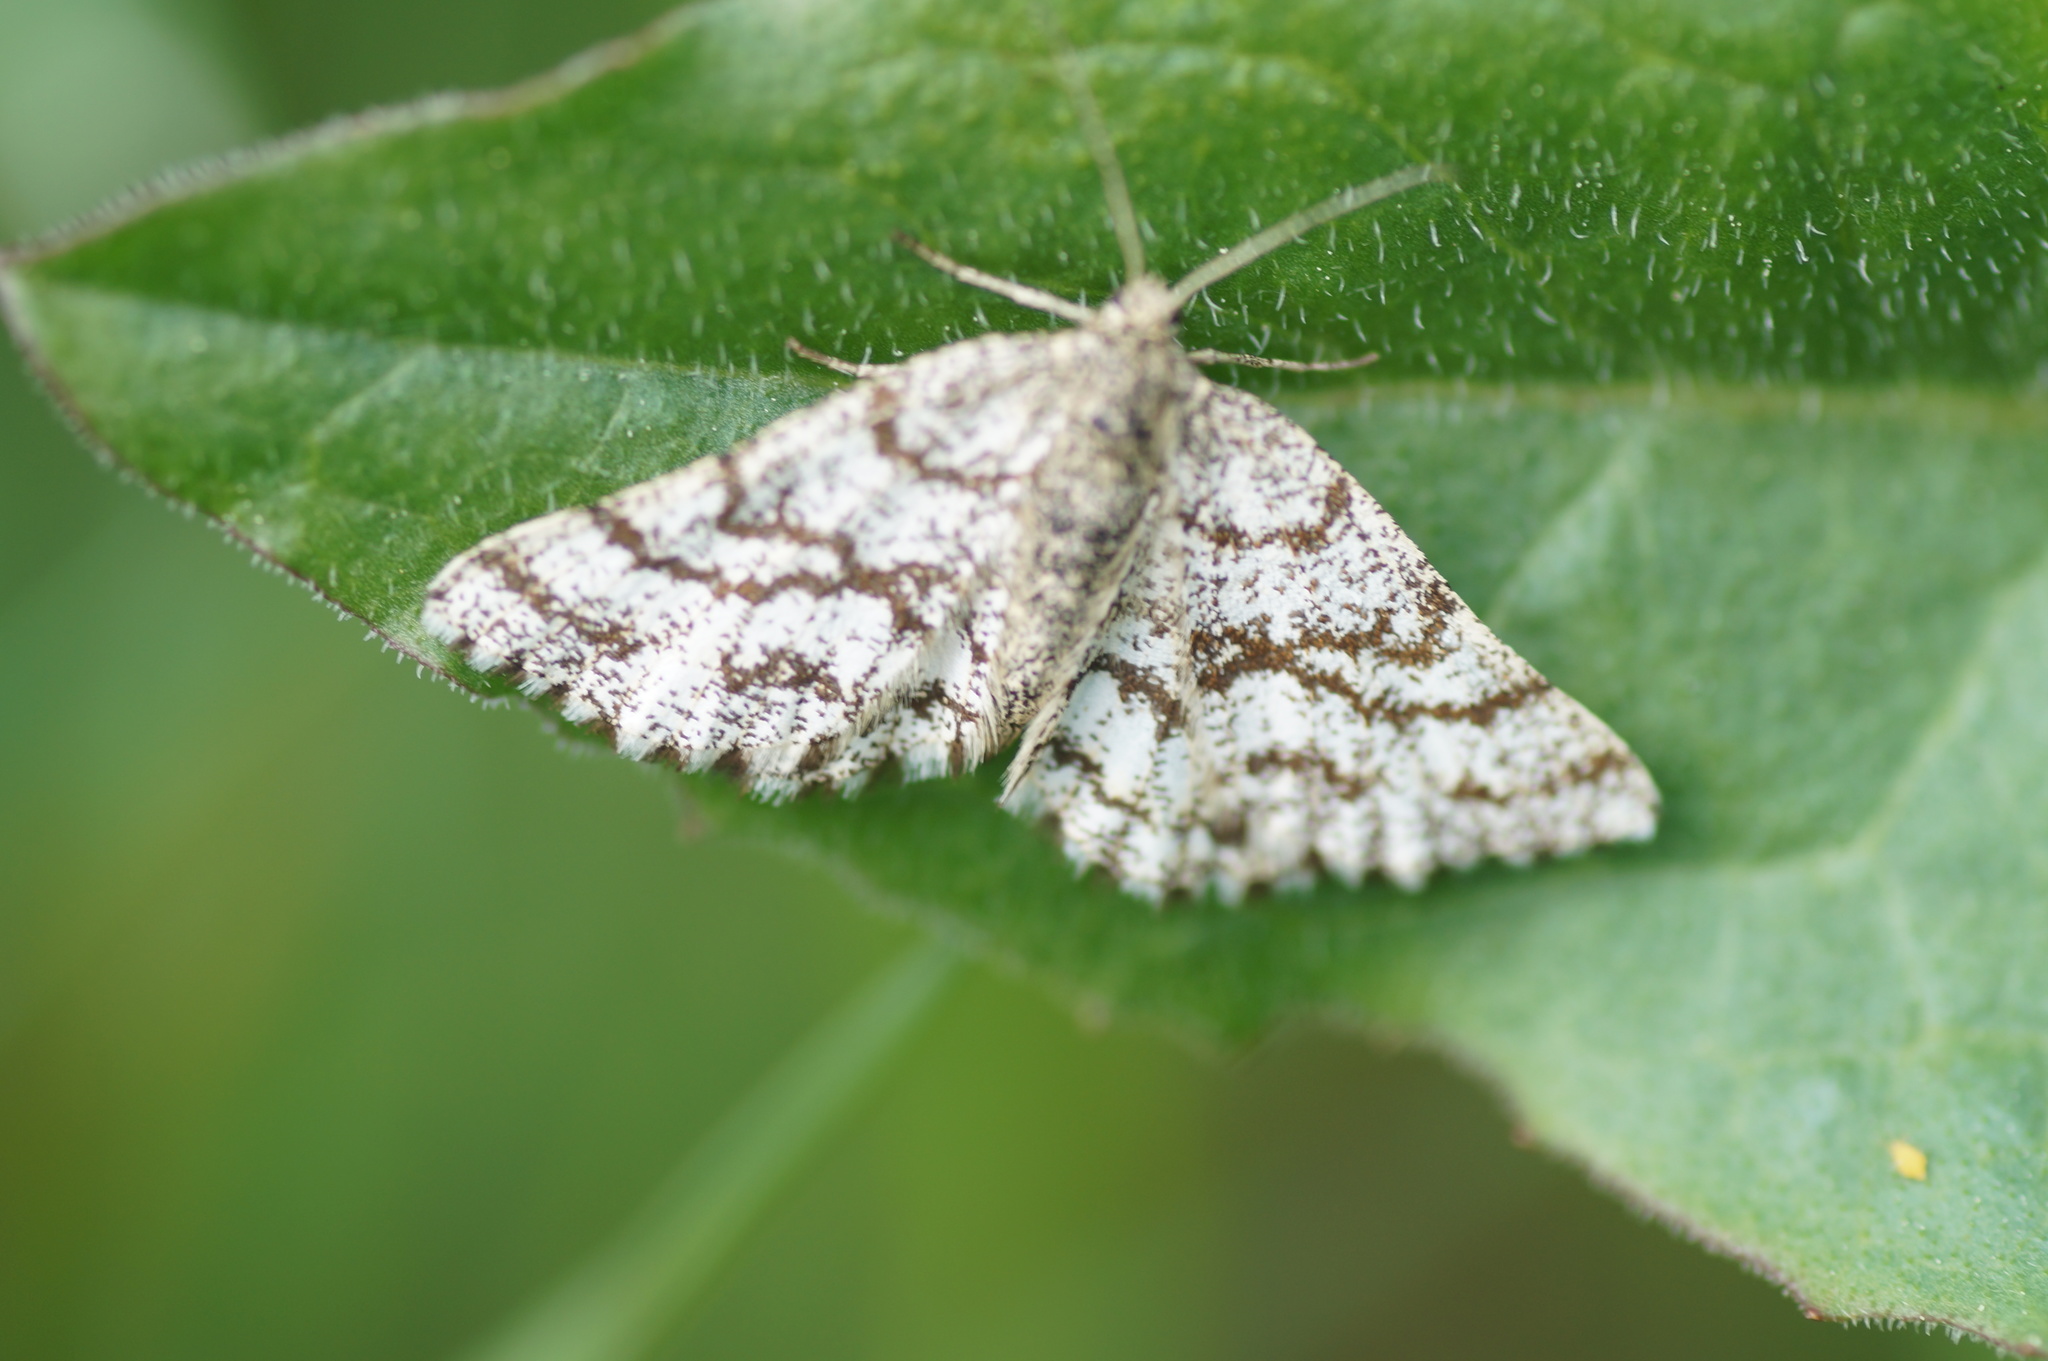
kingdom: Animalia
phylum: Arthropoda
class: Insecta
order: Lepidoptera
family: Geometridae
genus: Ematurga
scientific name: Ematurga atomaria
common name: Common heath
